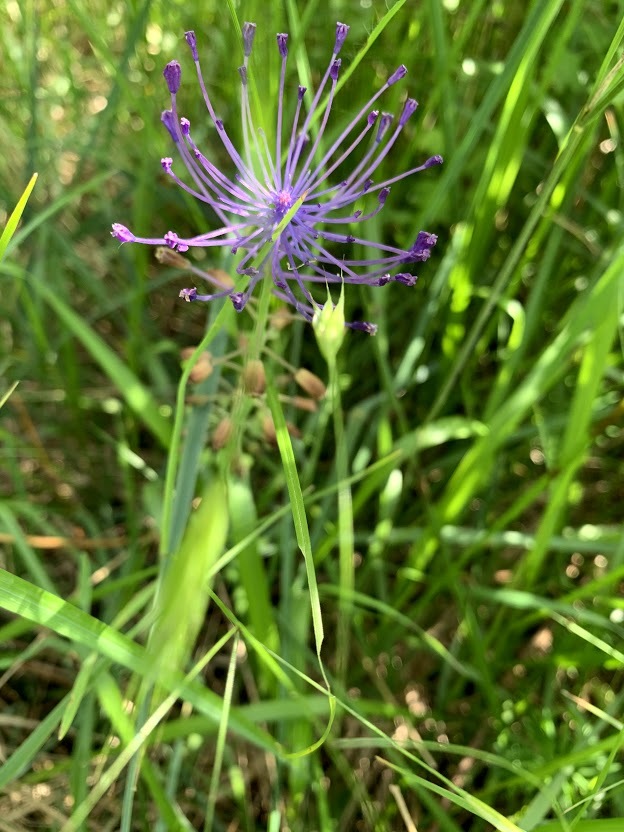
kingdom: Plantae
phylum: Tracheophyta
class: Liliopsida
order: Asparagales
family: Asparagaceae
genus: Muscari
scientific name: Muscari comosum
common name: Tassel hyacinth
